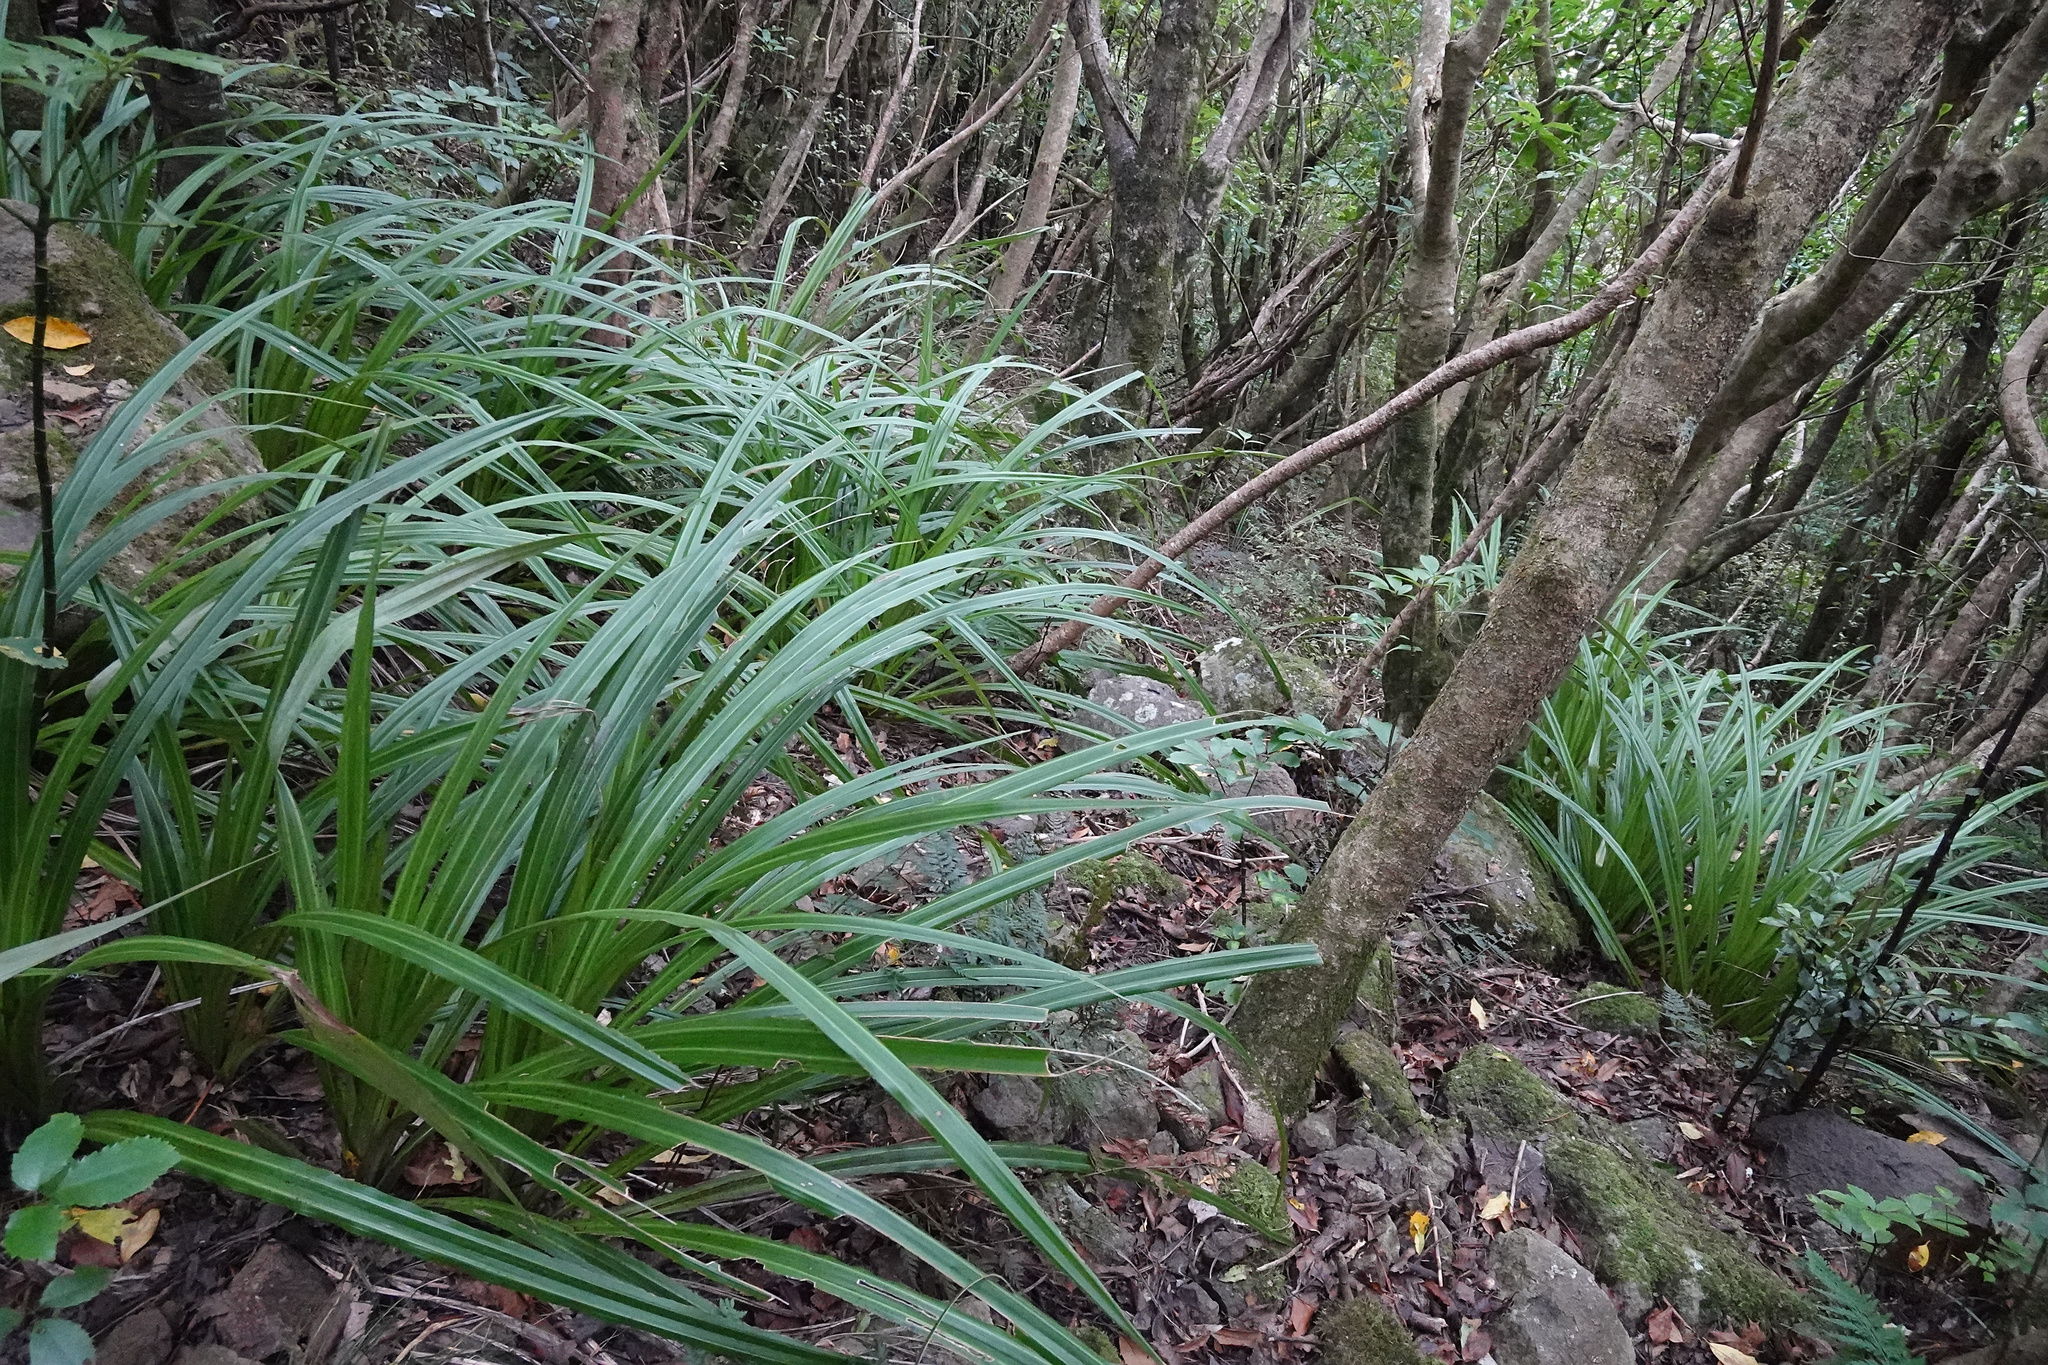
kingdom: Plantae
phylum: Tracheophyta
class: Liliopsida
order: Asparagales
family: Asteliaceae
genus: Astelia
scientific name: Astelia fragrans
